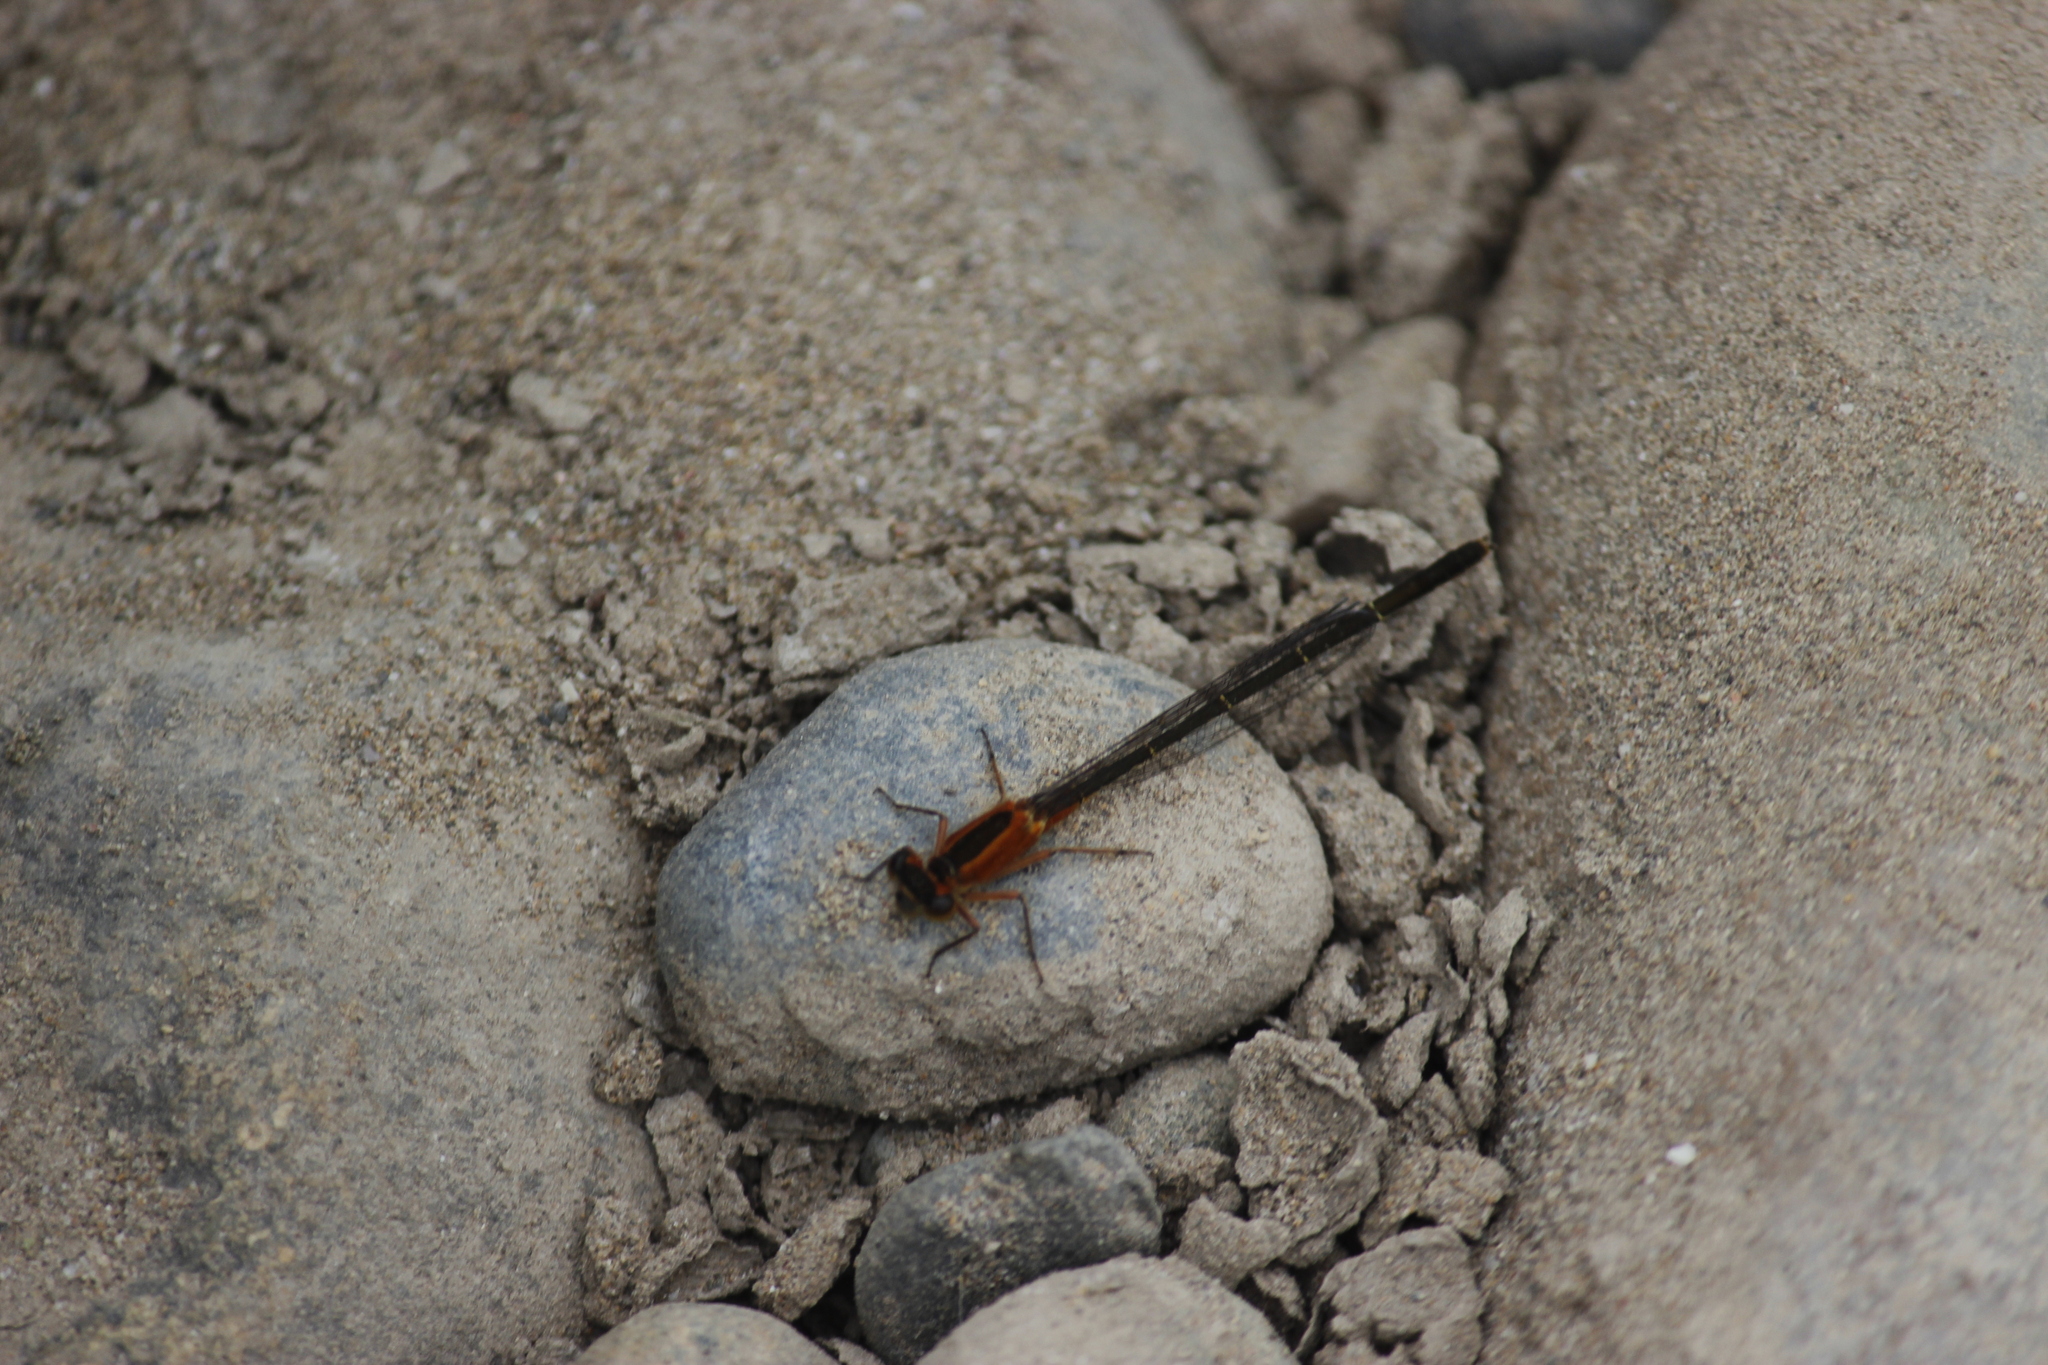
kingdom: Animalia
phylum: Arthropoda
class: Insecta
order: Odonata
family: Coenagrionidae
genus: Ischnura
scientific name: Ischnura ramburii
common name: Rambur's forktail
